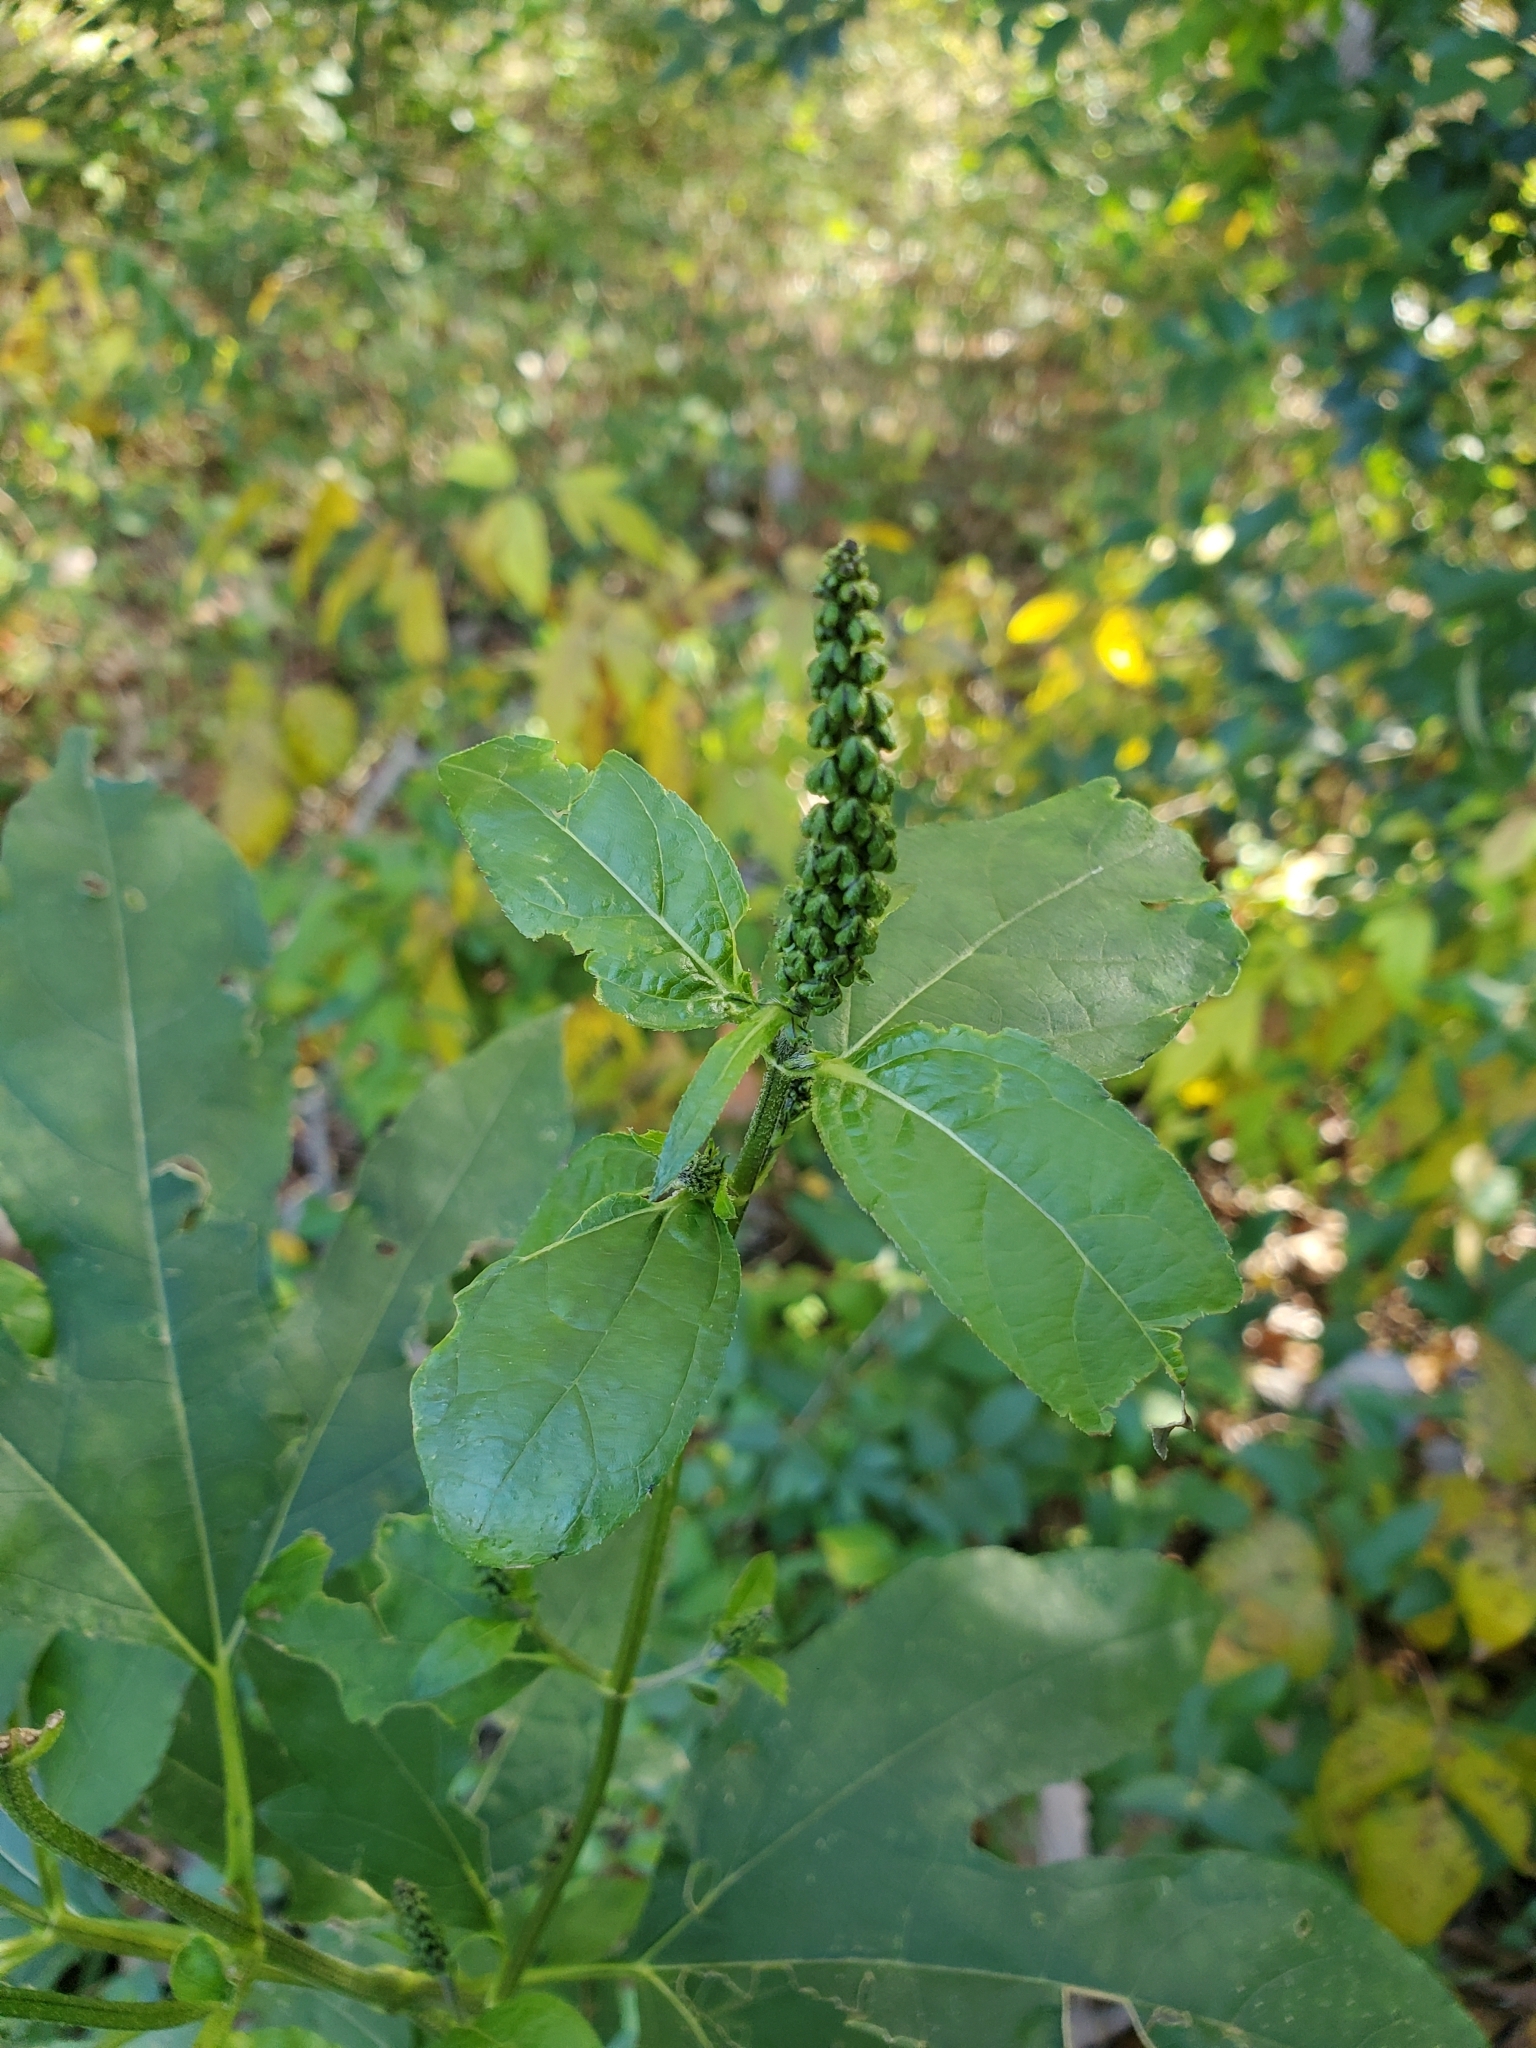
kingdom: Plantae
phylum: Tracheophyta
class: Magnoliopsida
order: Asterales
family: Asteraceae
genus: Ambrosia
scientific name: Ambrosia trifida
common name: Giant ragweed
